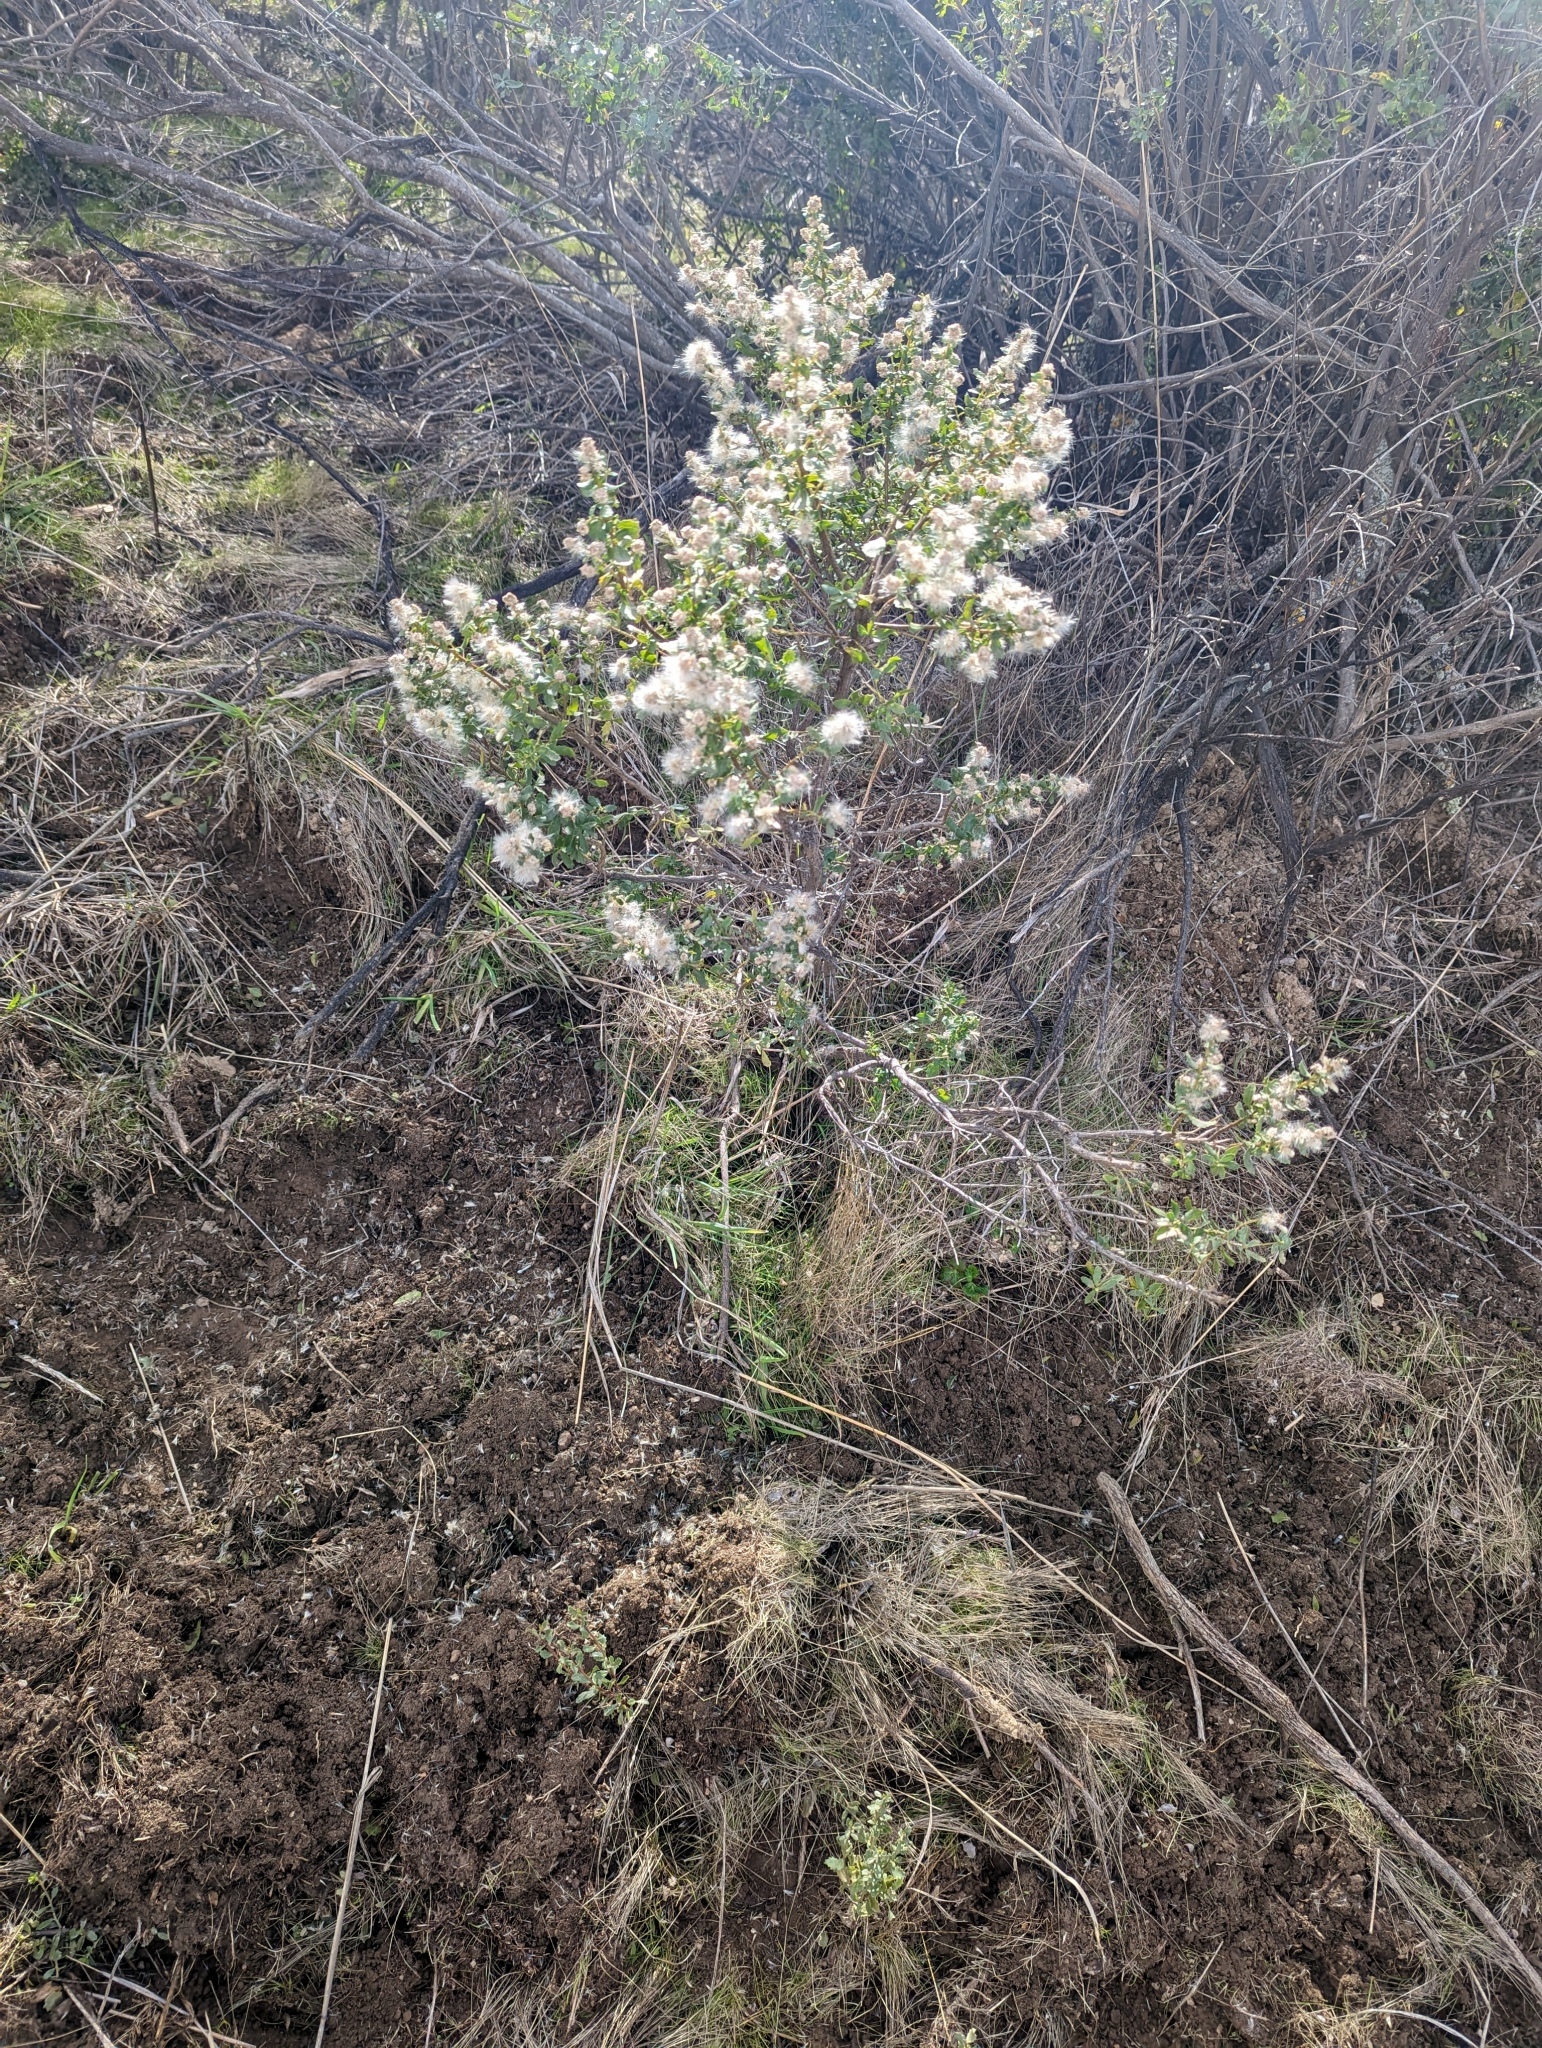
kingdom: Plantae
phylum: Tracheophyta
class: Magnoliopsida
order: Asterales
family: Asteraceae
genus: Baccharis
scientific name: Baccharis pilularis
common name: Coyotebrush
